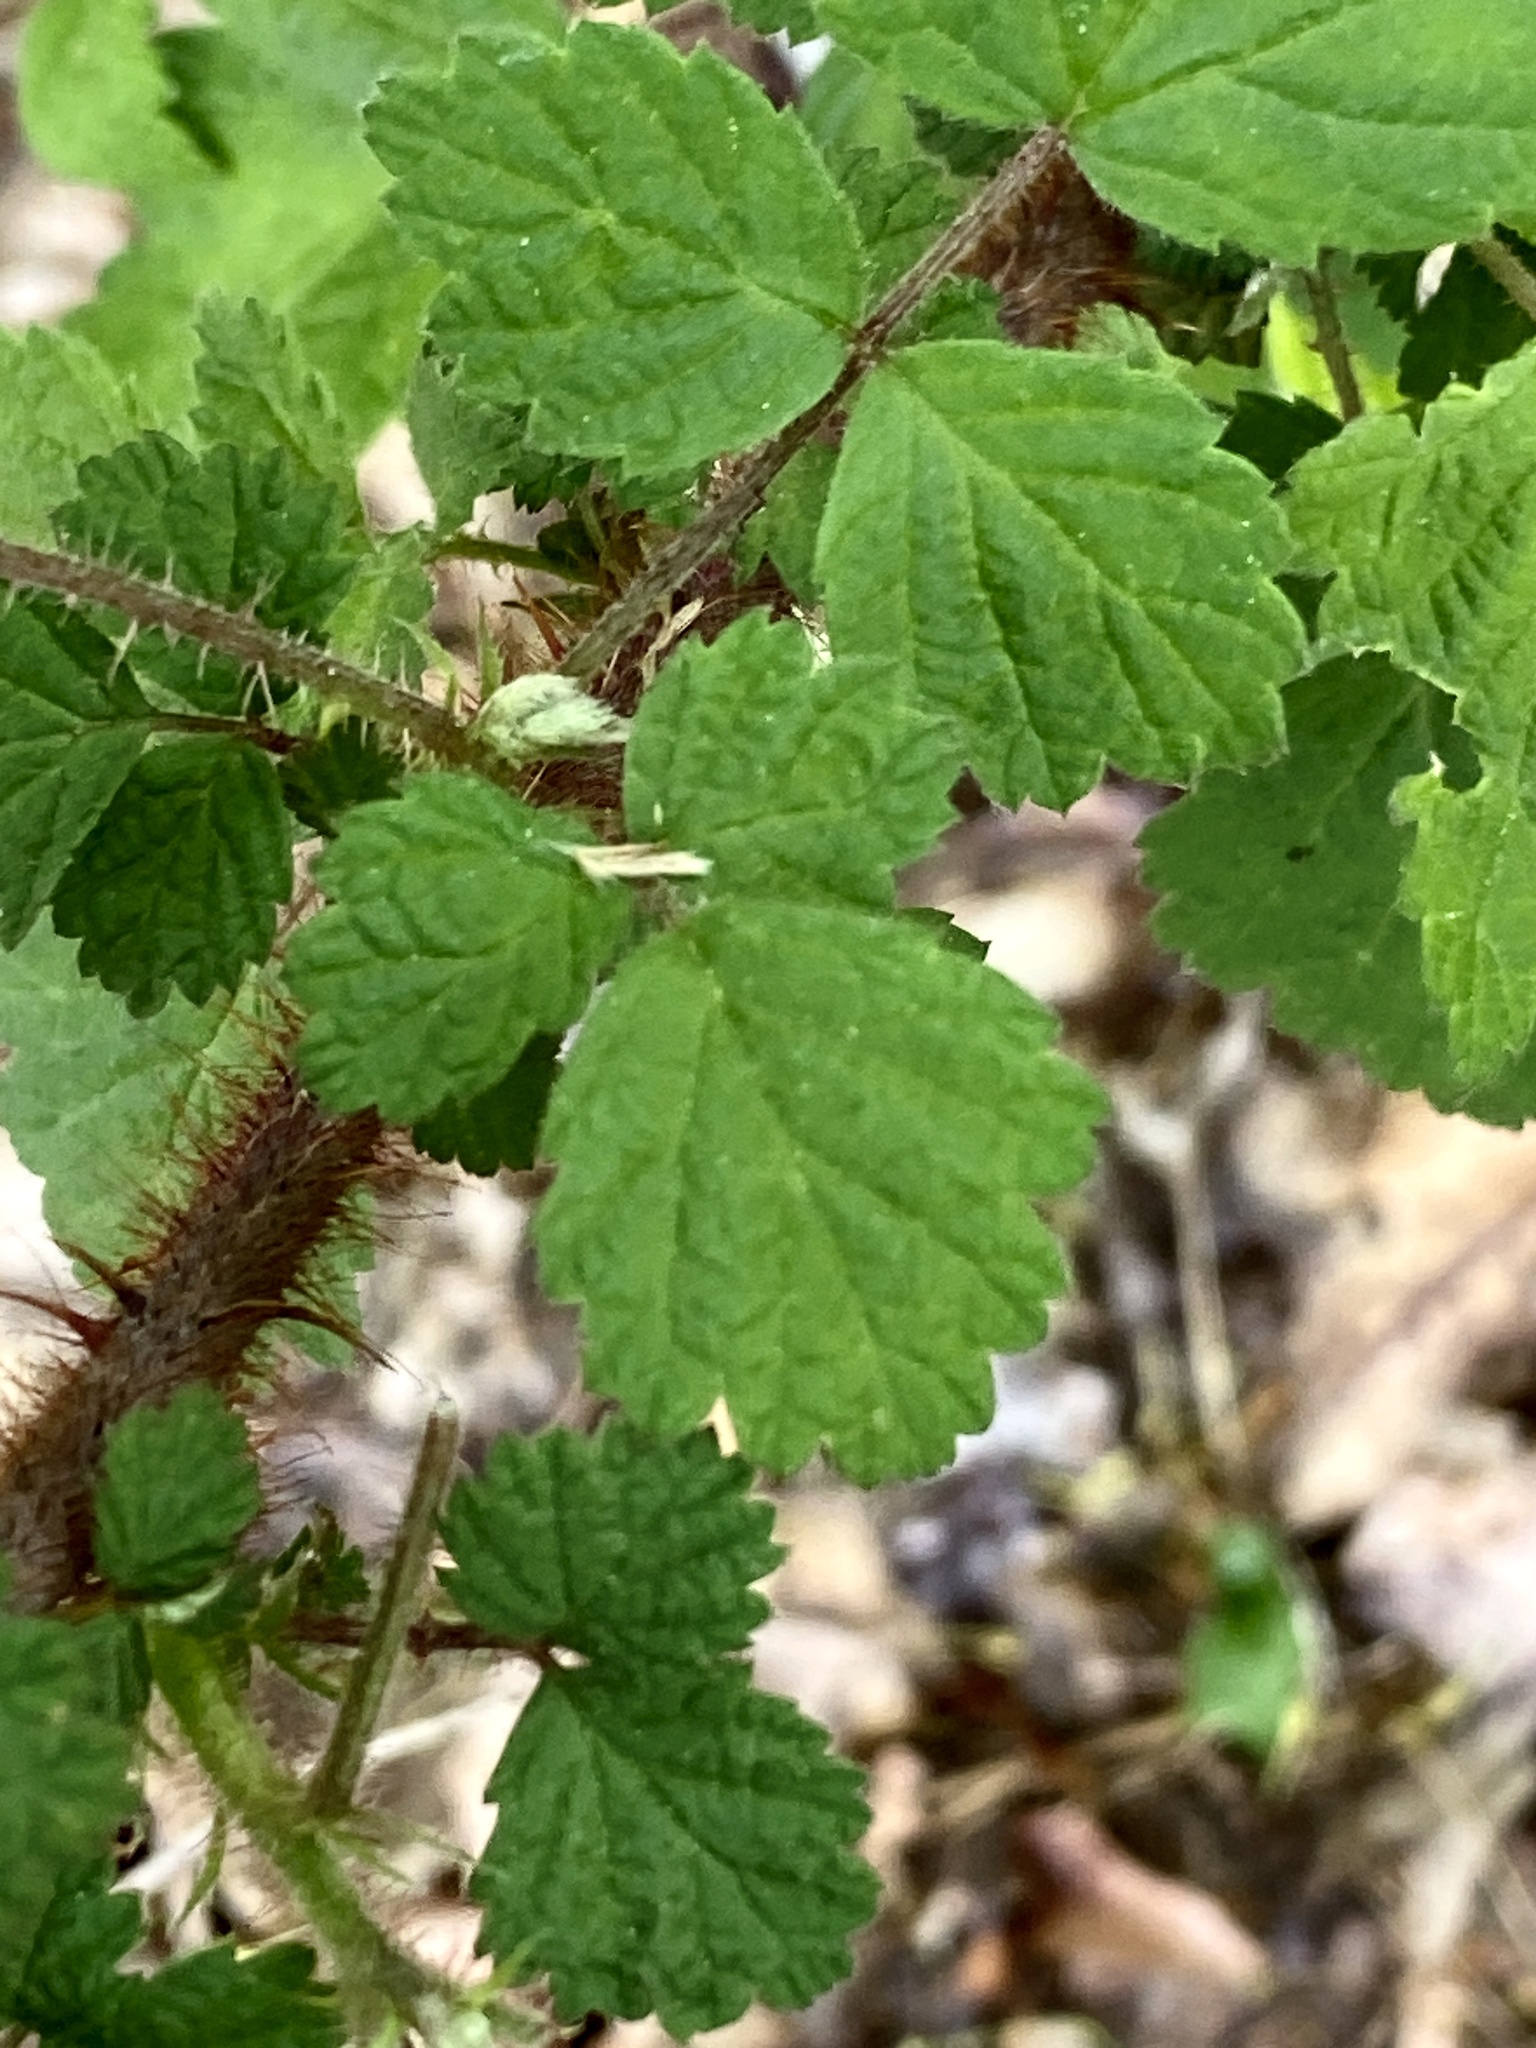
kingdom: Plantae
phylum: Tracheophyta
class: Magnoliopsida
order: Rosales
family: Rosaceae
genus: Rubus
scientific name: Rubus phoenicolasius
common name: Japanese wineberry
